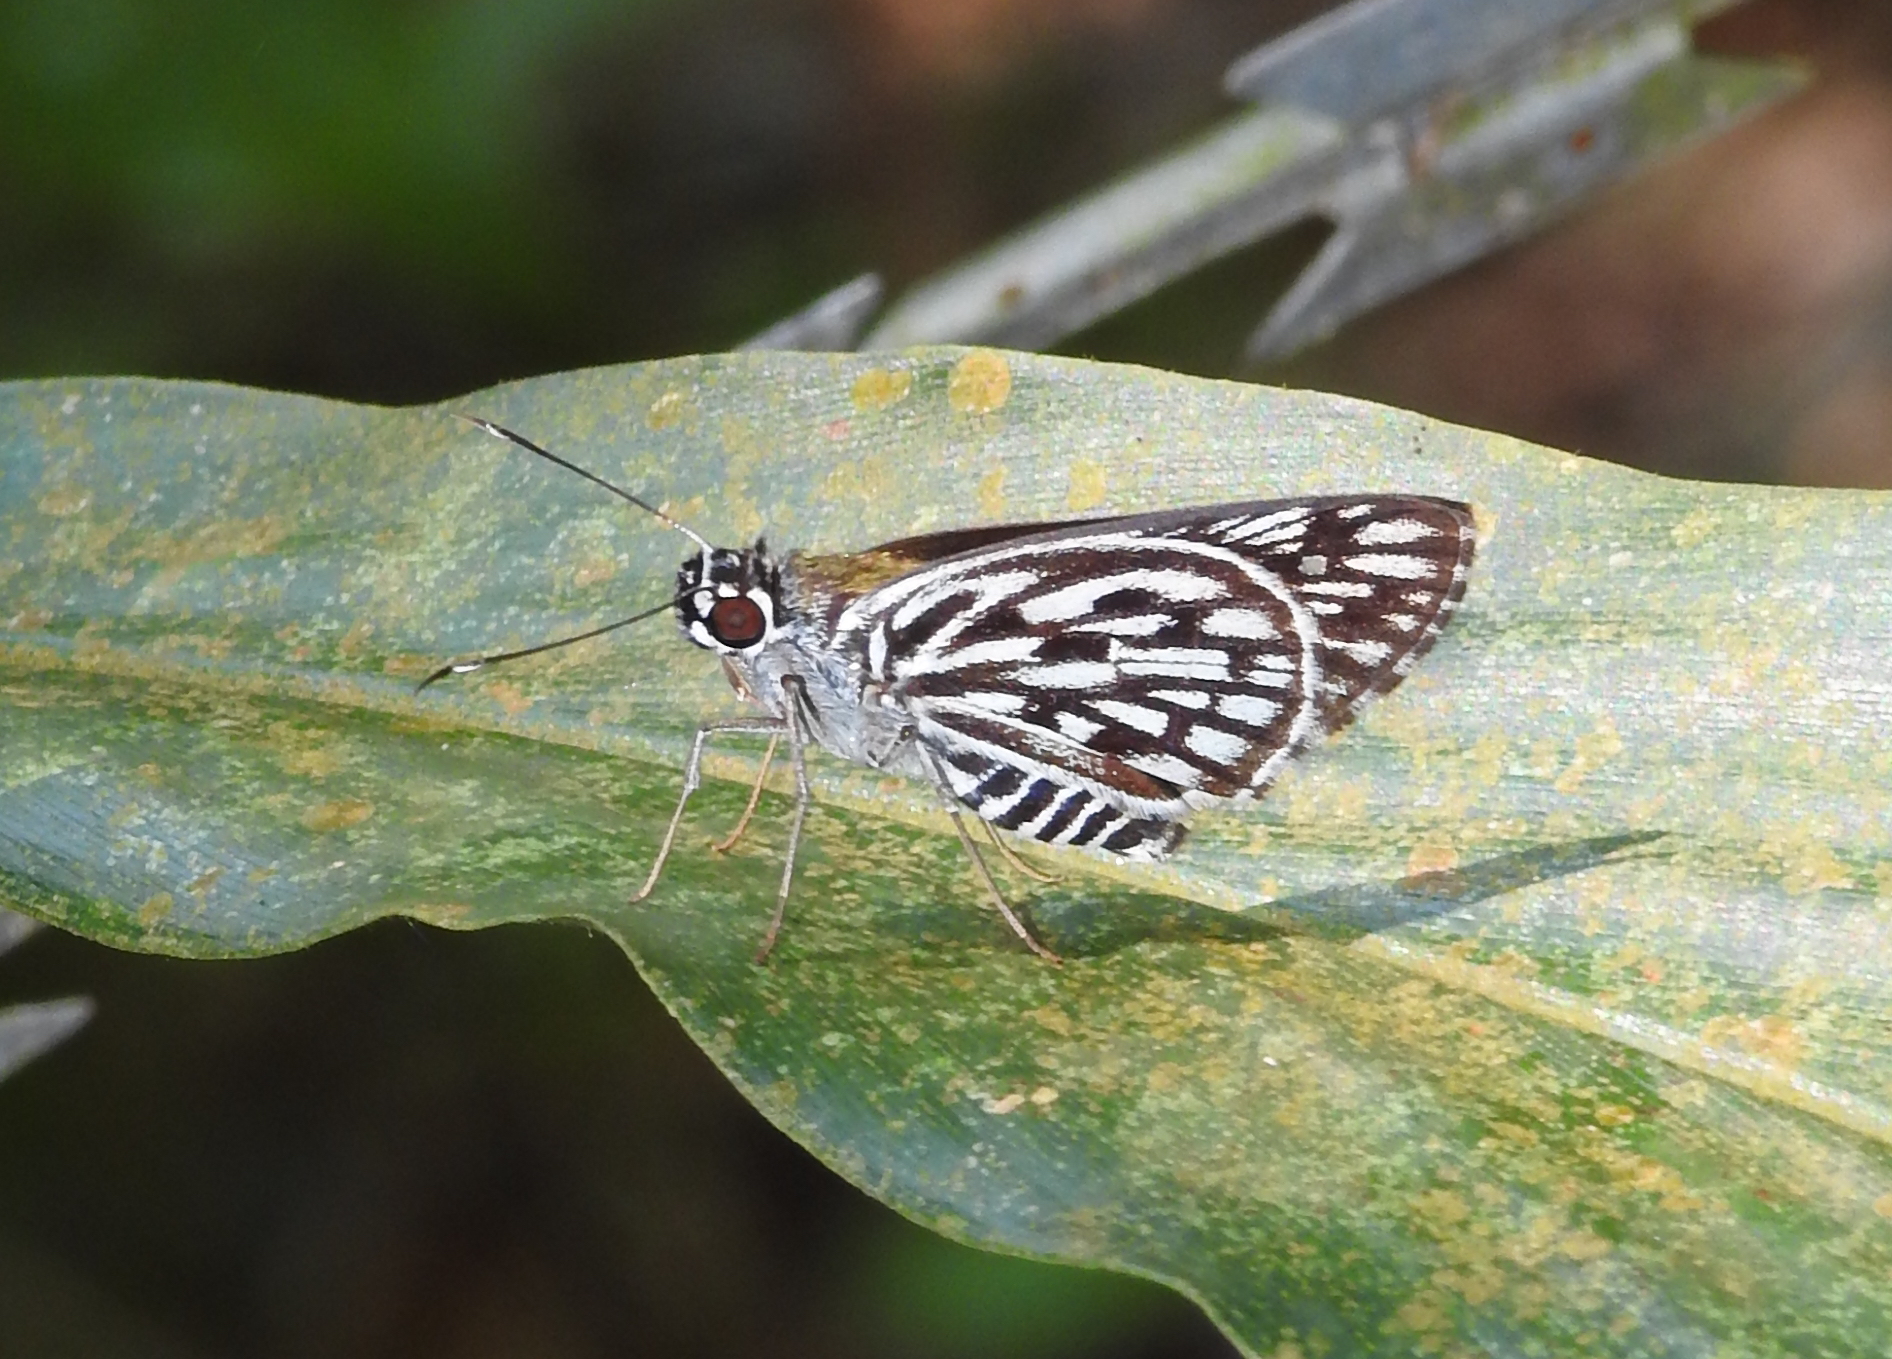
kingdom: Animalia
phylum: Arthropoda
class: Insecta
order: Lepidoptera
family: Hesperiidae
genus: Plastingia
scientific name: Plastingia naga
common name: Chequered lancer
